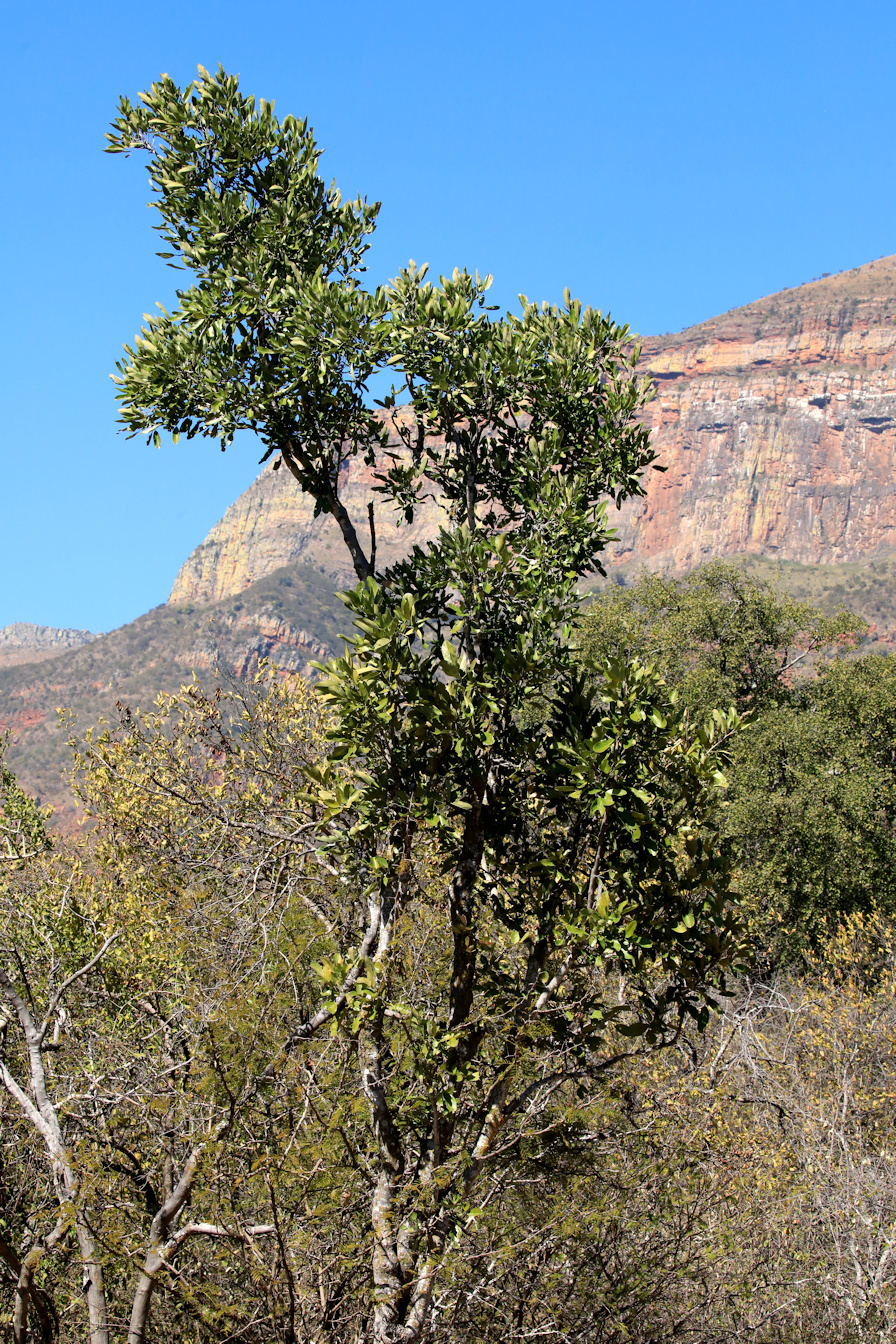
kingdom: Plantae
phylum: Tracheophyta
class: Magnoliopsida
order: Fabales
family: Fabaceae
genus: Philenoptera
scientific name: Philenoptera violacea
